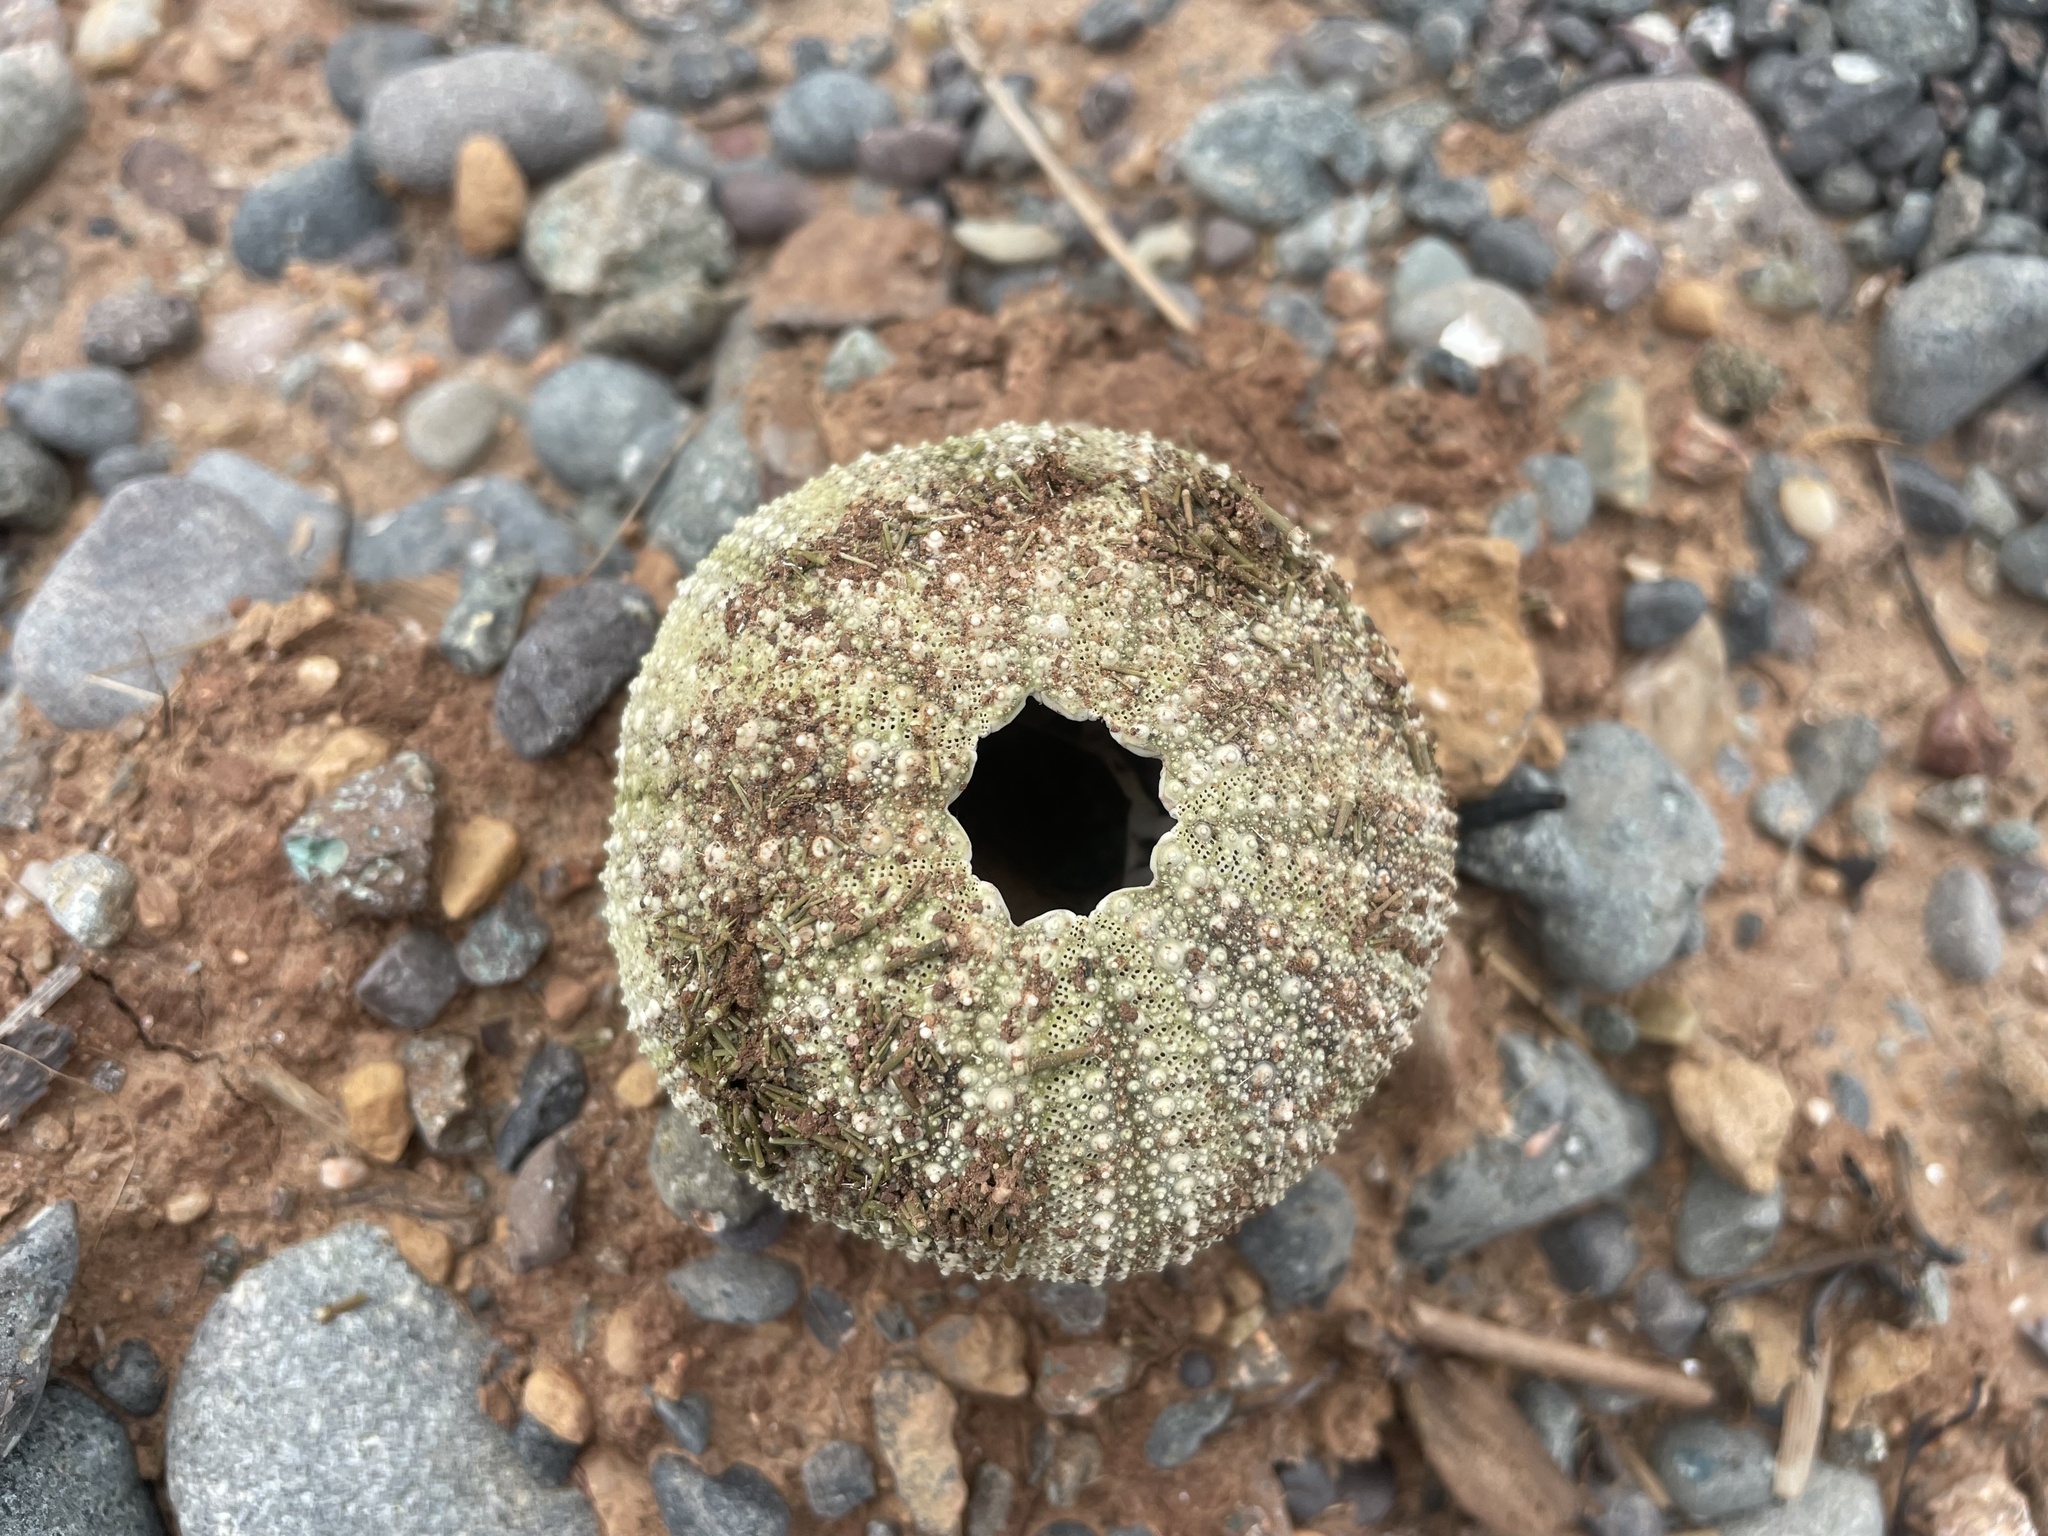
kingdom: Animalia
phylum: Echinodermata
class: Echinoidea
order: Camarodonta
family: Strongylocentrotidae
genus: Strongylocentrotus
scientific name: Strongylocentrotus droebachiensis
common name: Northern sea urchin
